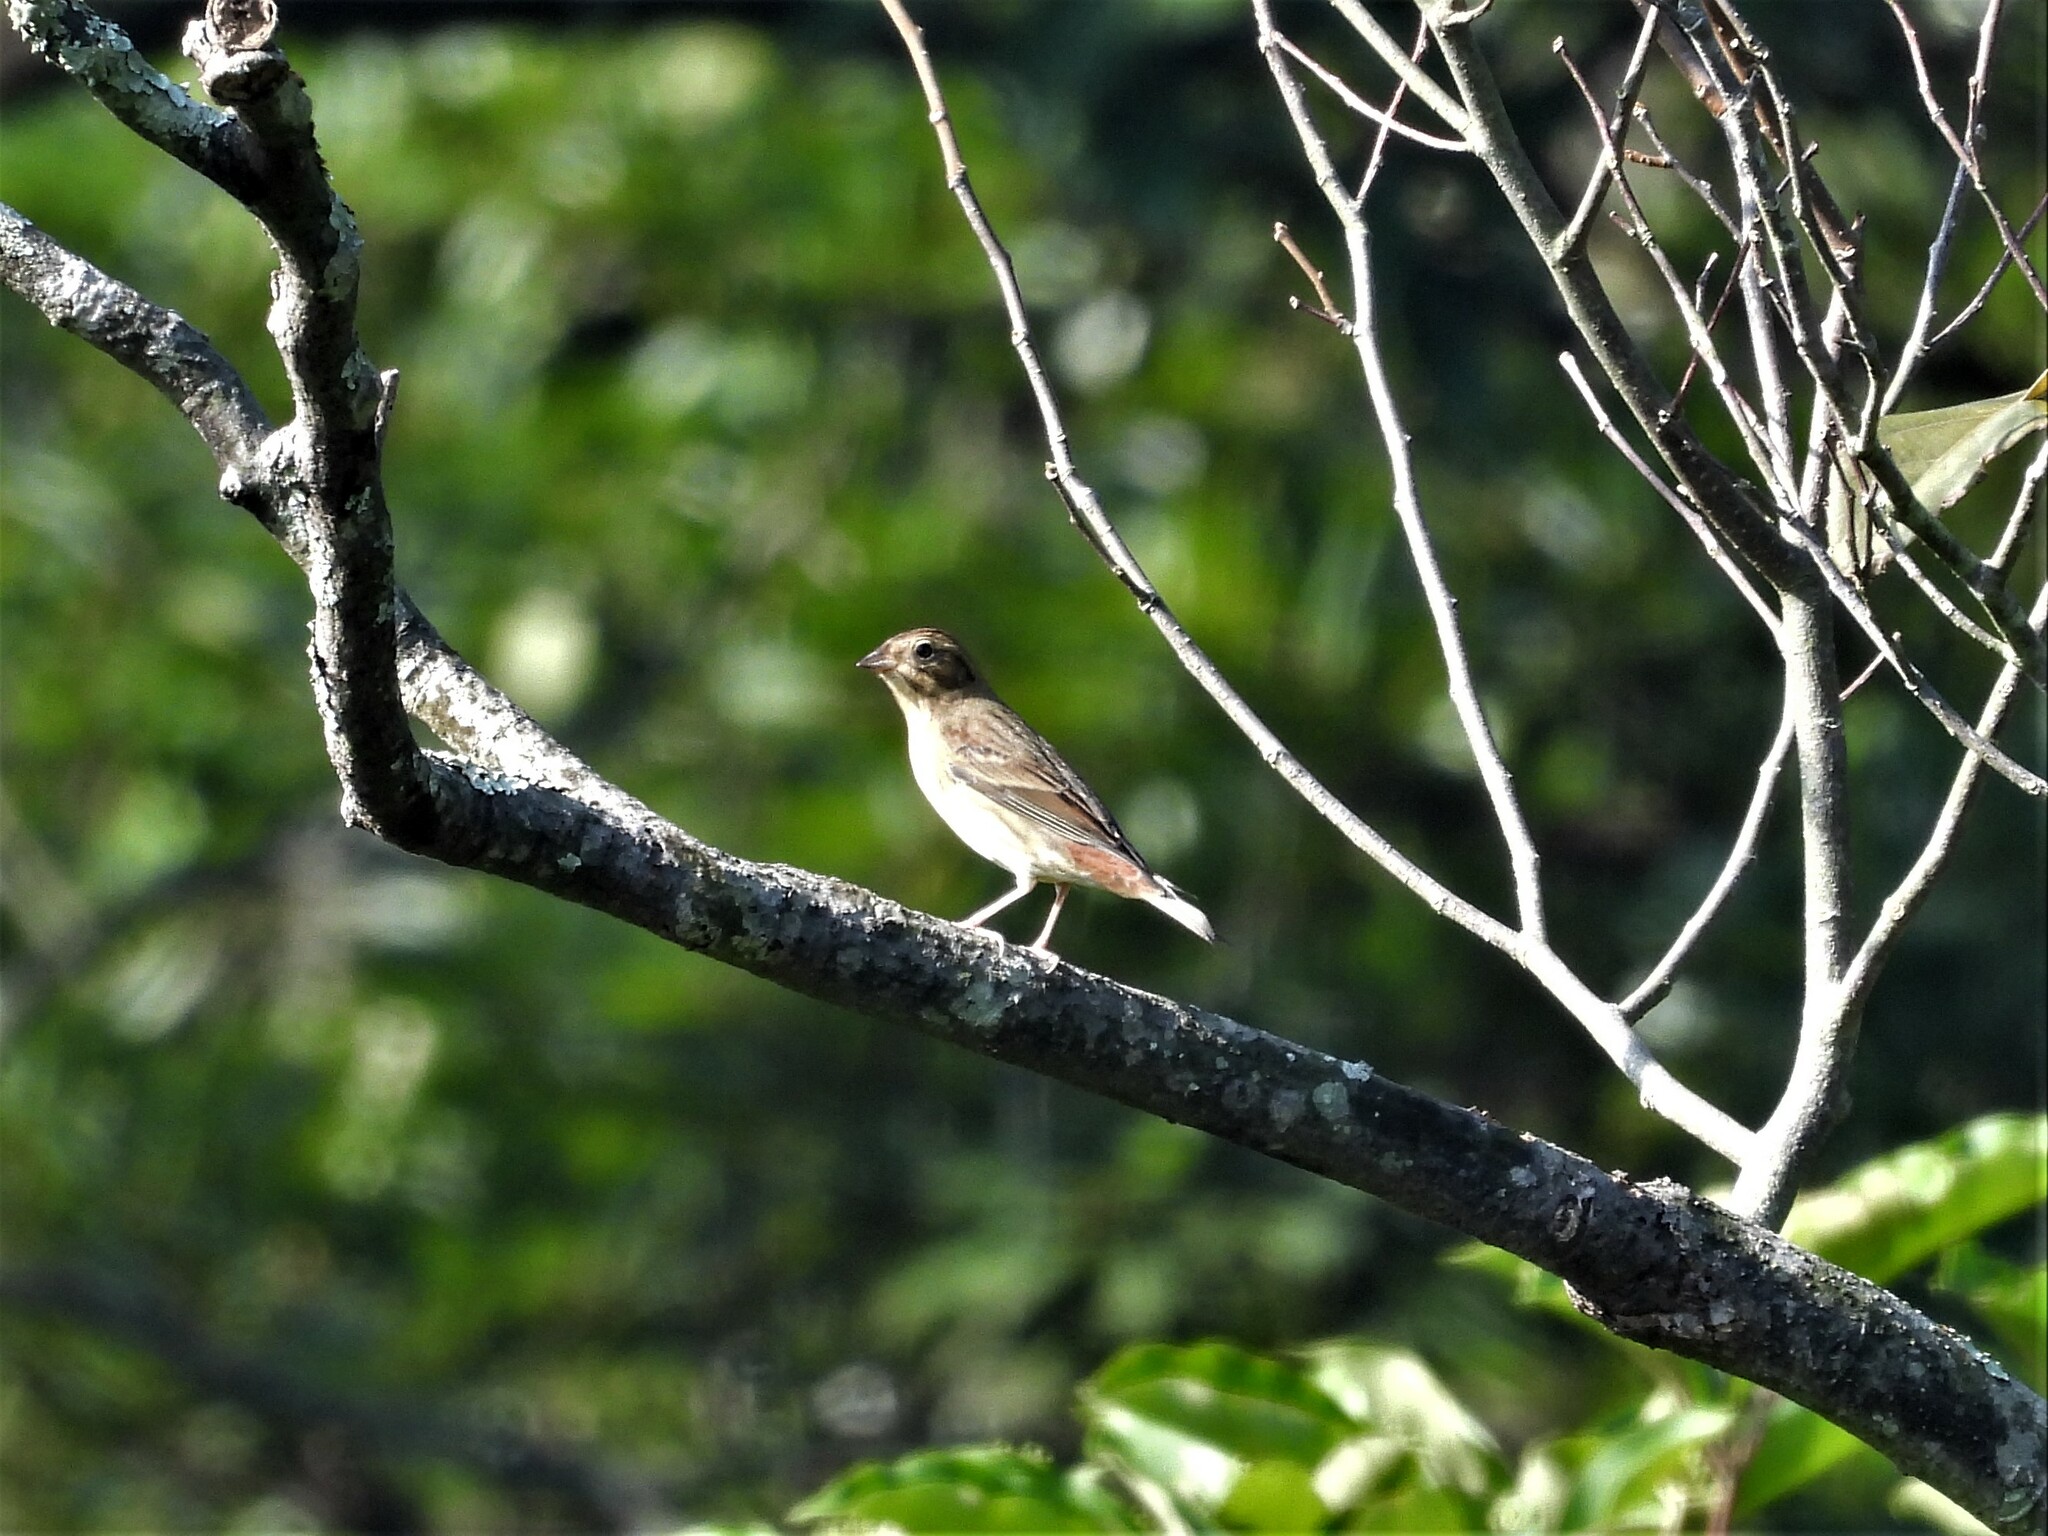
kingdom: Animalia
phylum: Chordata
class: Aves
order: Passeriformes
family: Emberizidae
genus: Emberiza
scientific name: Emberiza rutila
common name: Chestnut bunting
